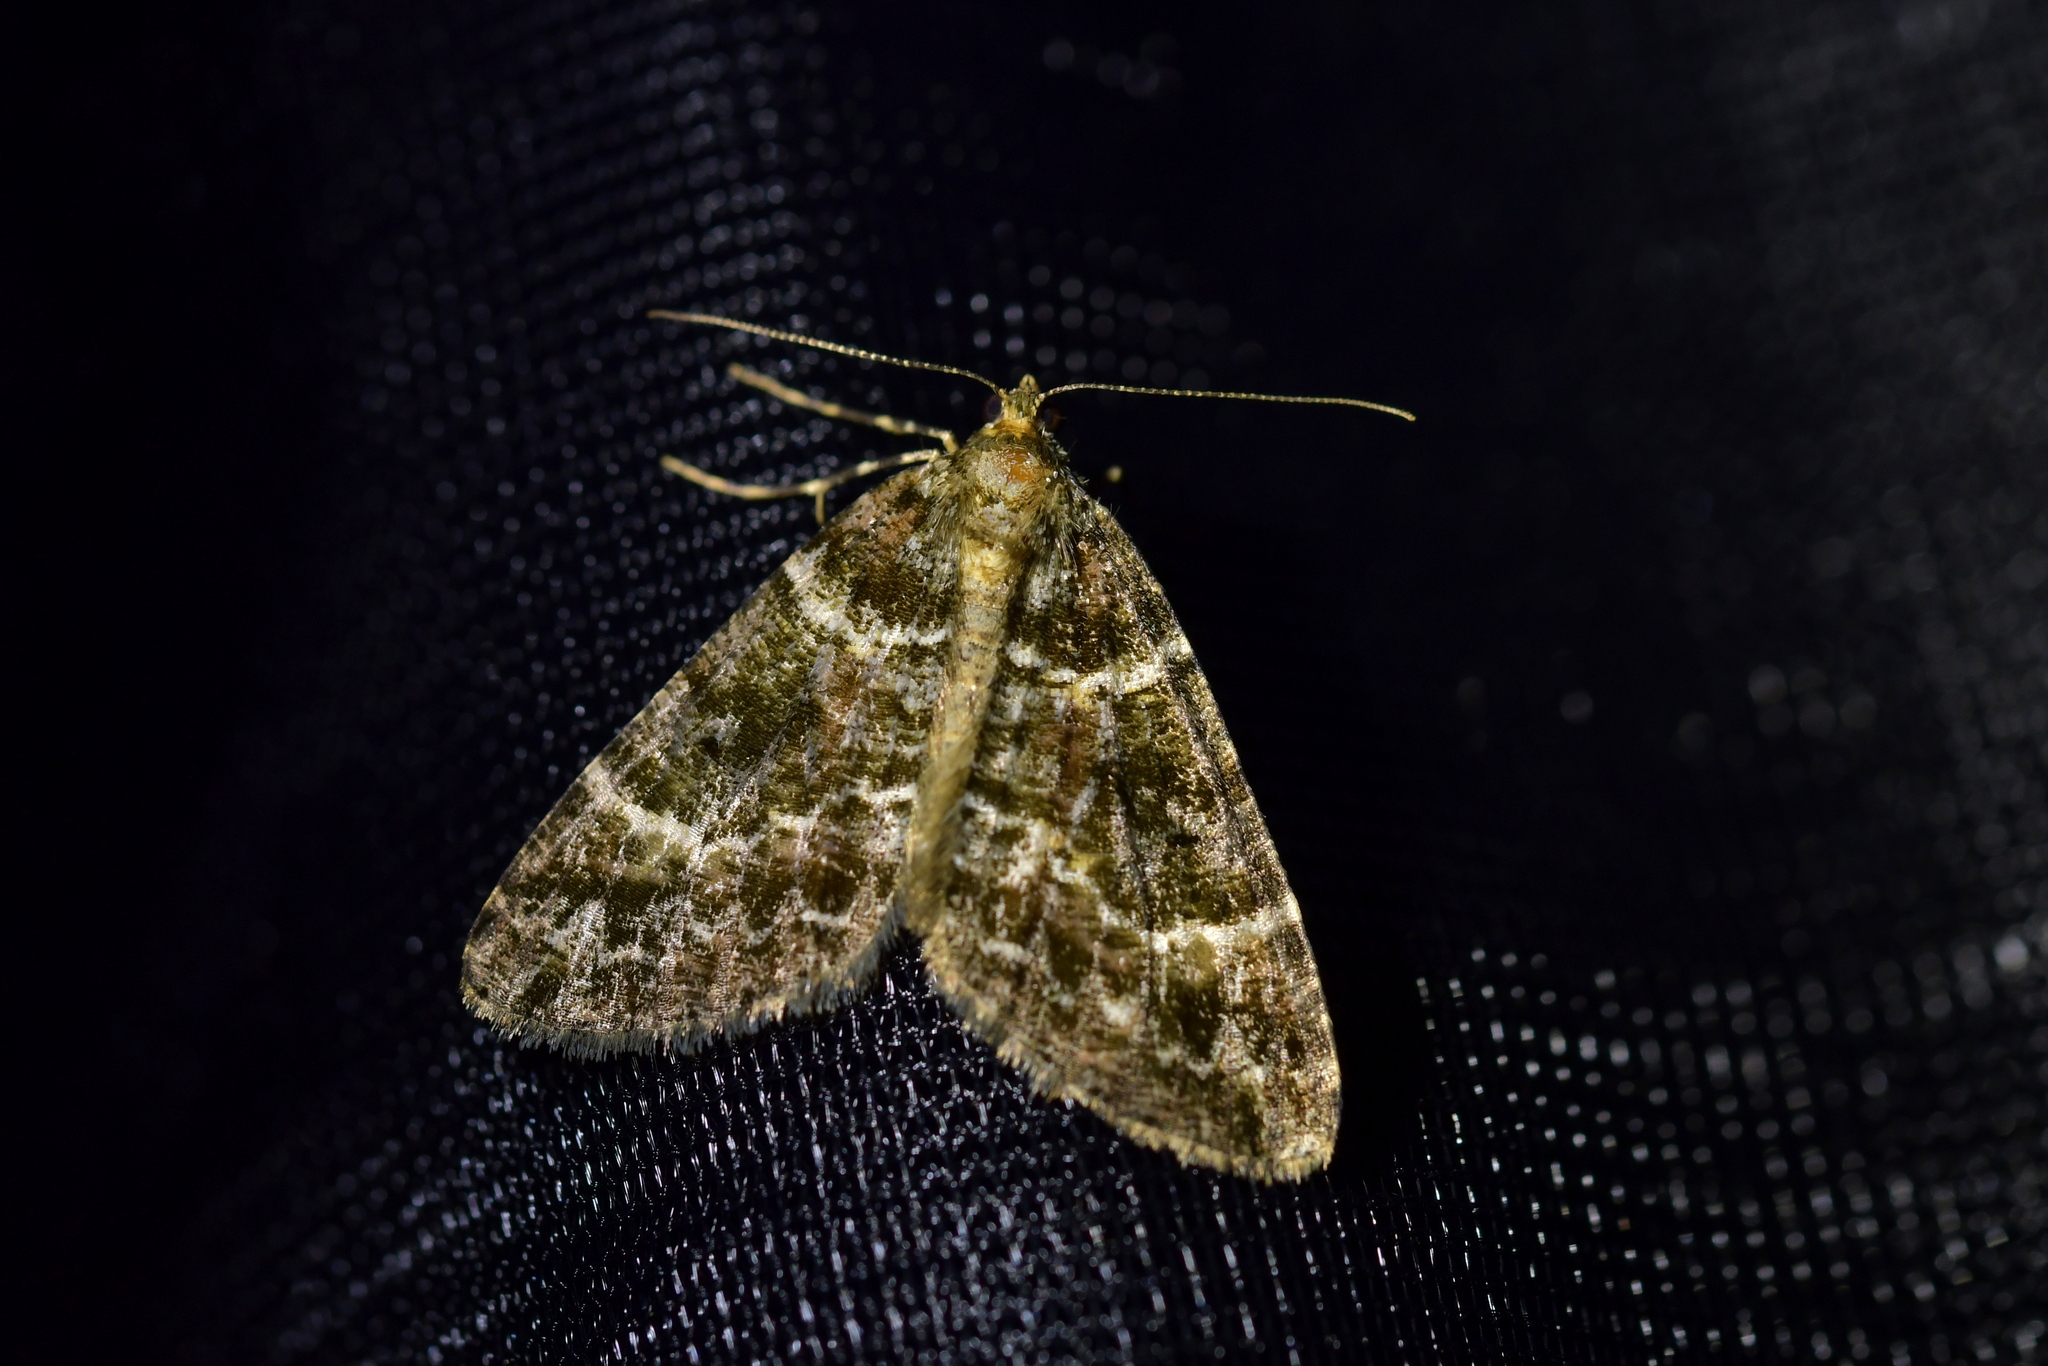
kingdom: Animalia
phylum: Arthropoda
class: Insecta
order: Lepidoptera
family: Geometridae
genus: Pseudocoremia
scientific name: Pseudocoremia productata
